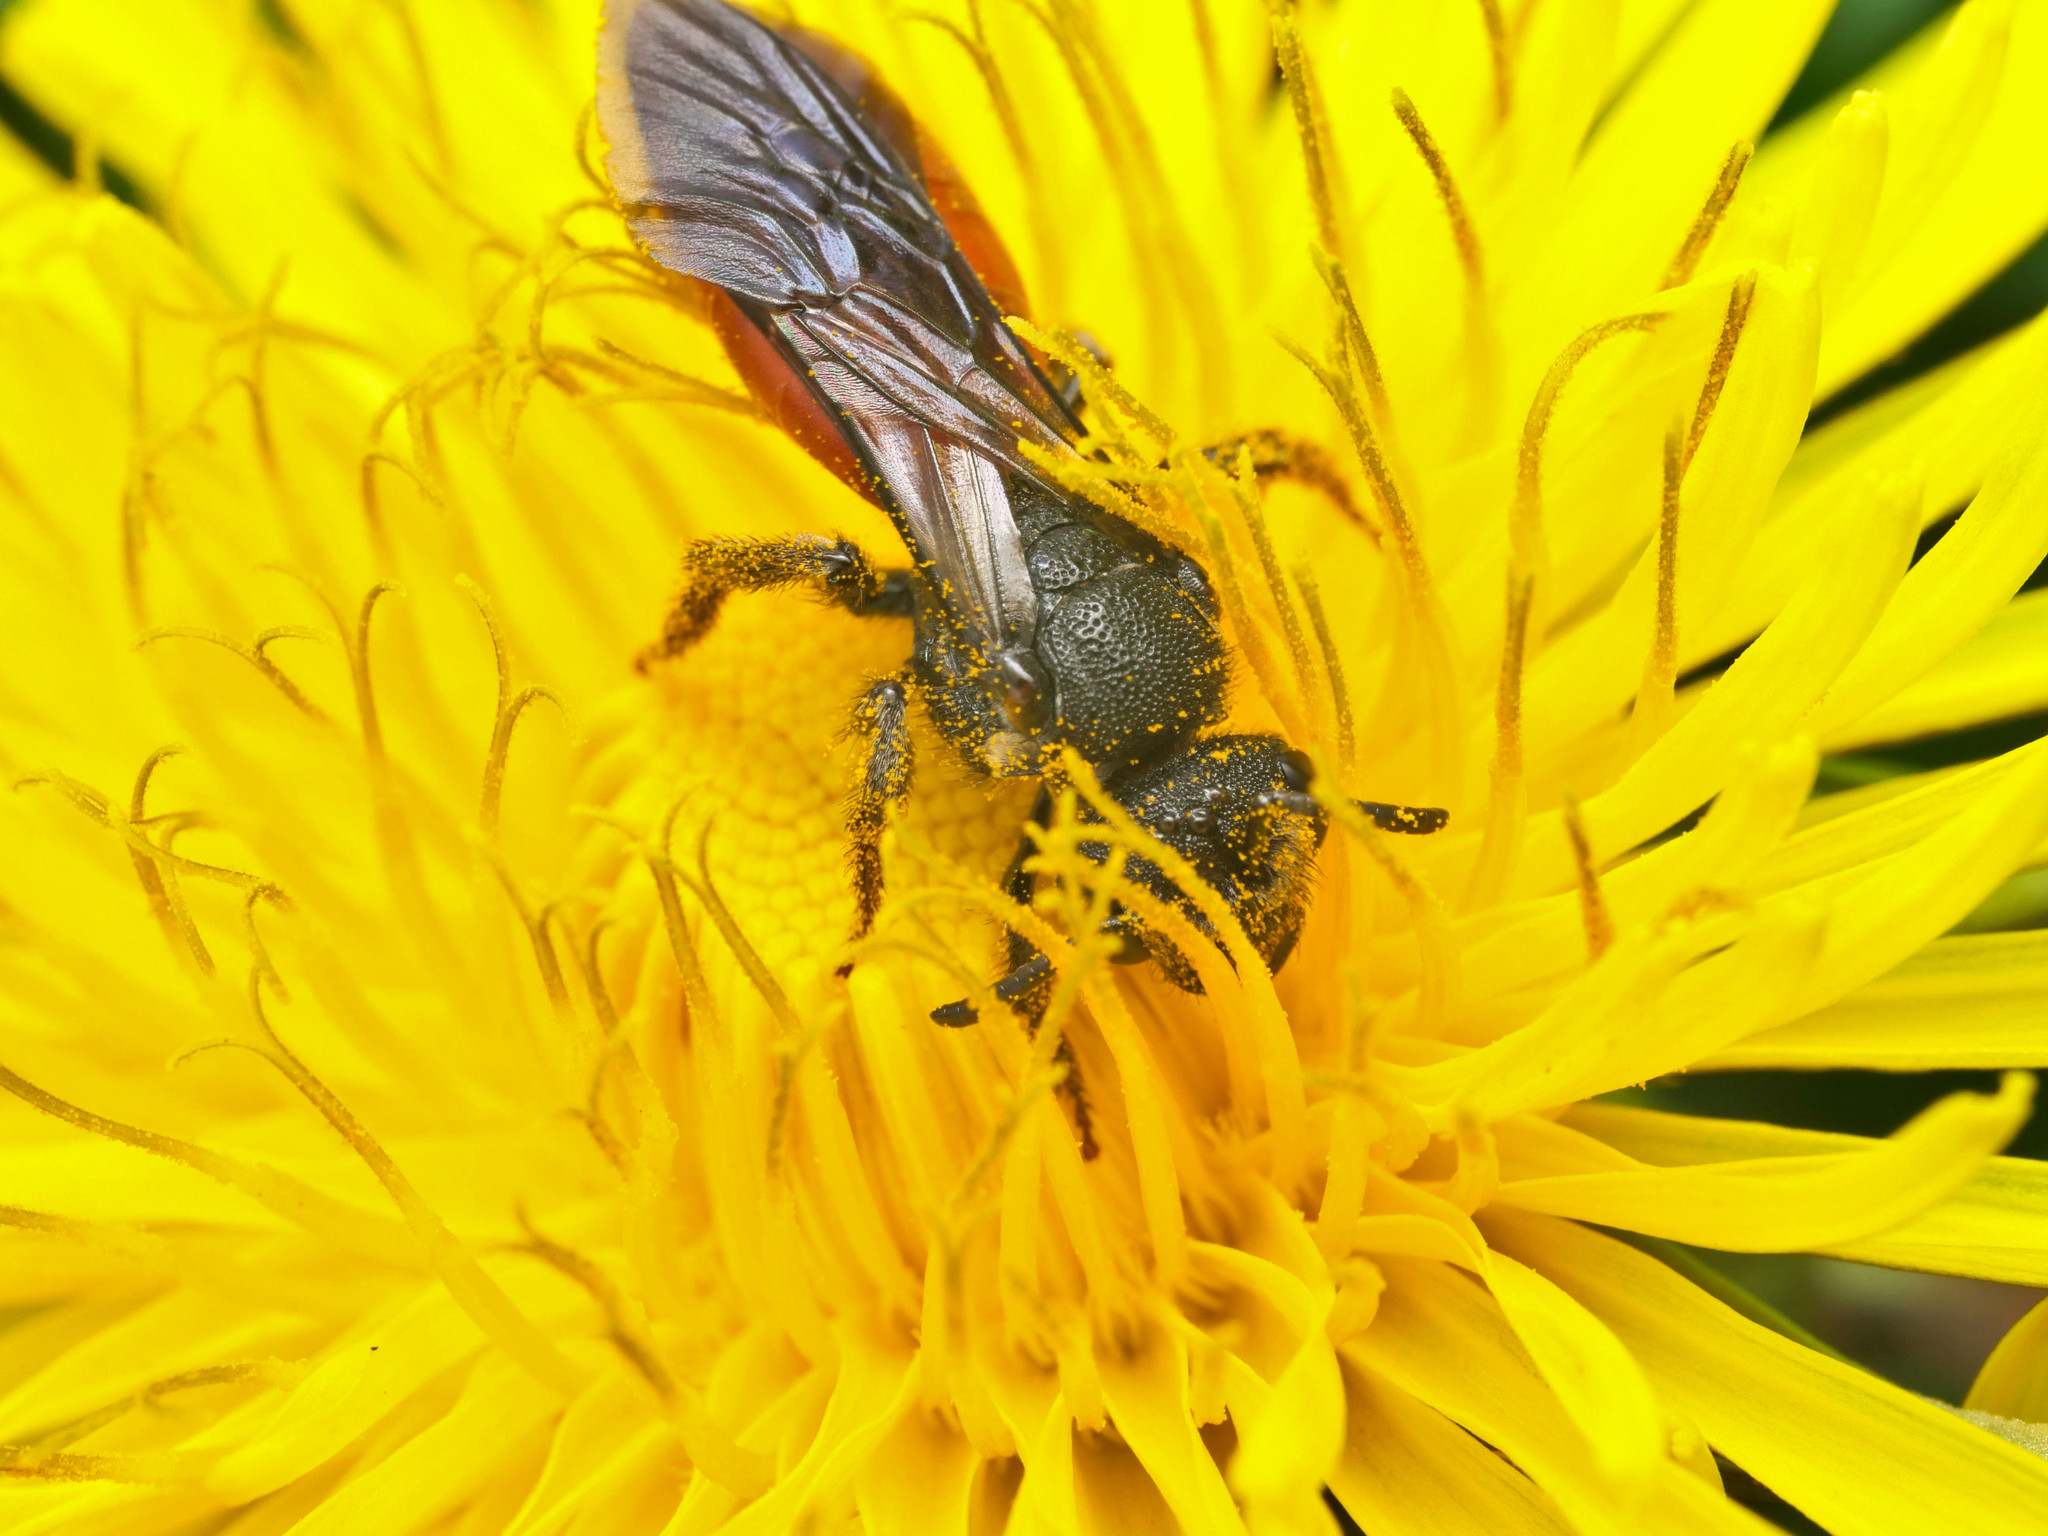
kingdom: Animalia
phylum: Arthropoda
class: Insecta
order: Hymenoptera
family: Halictidae
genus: Sphecodes
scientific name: Sphecodes albilabris
